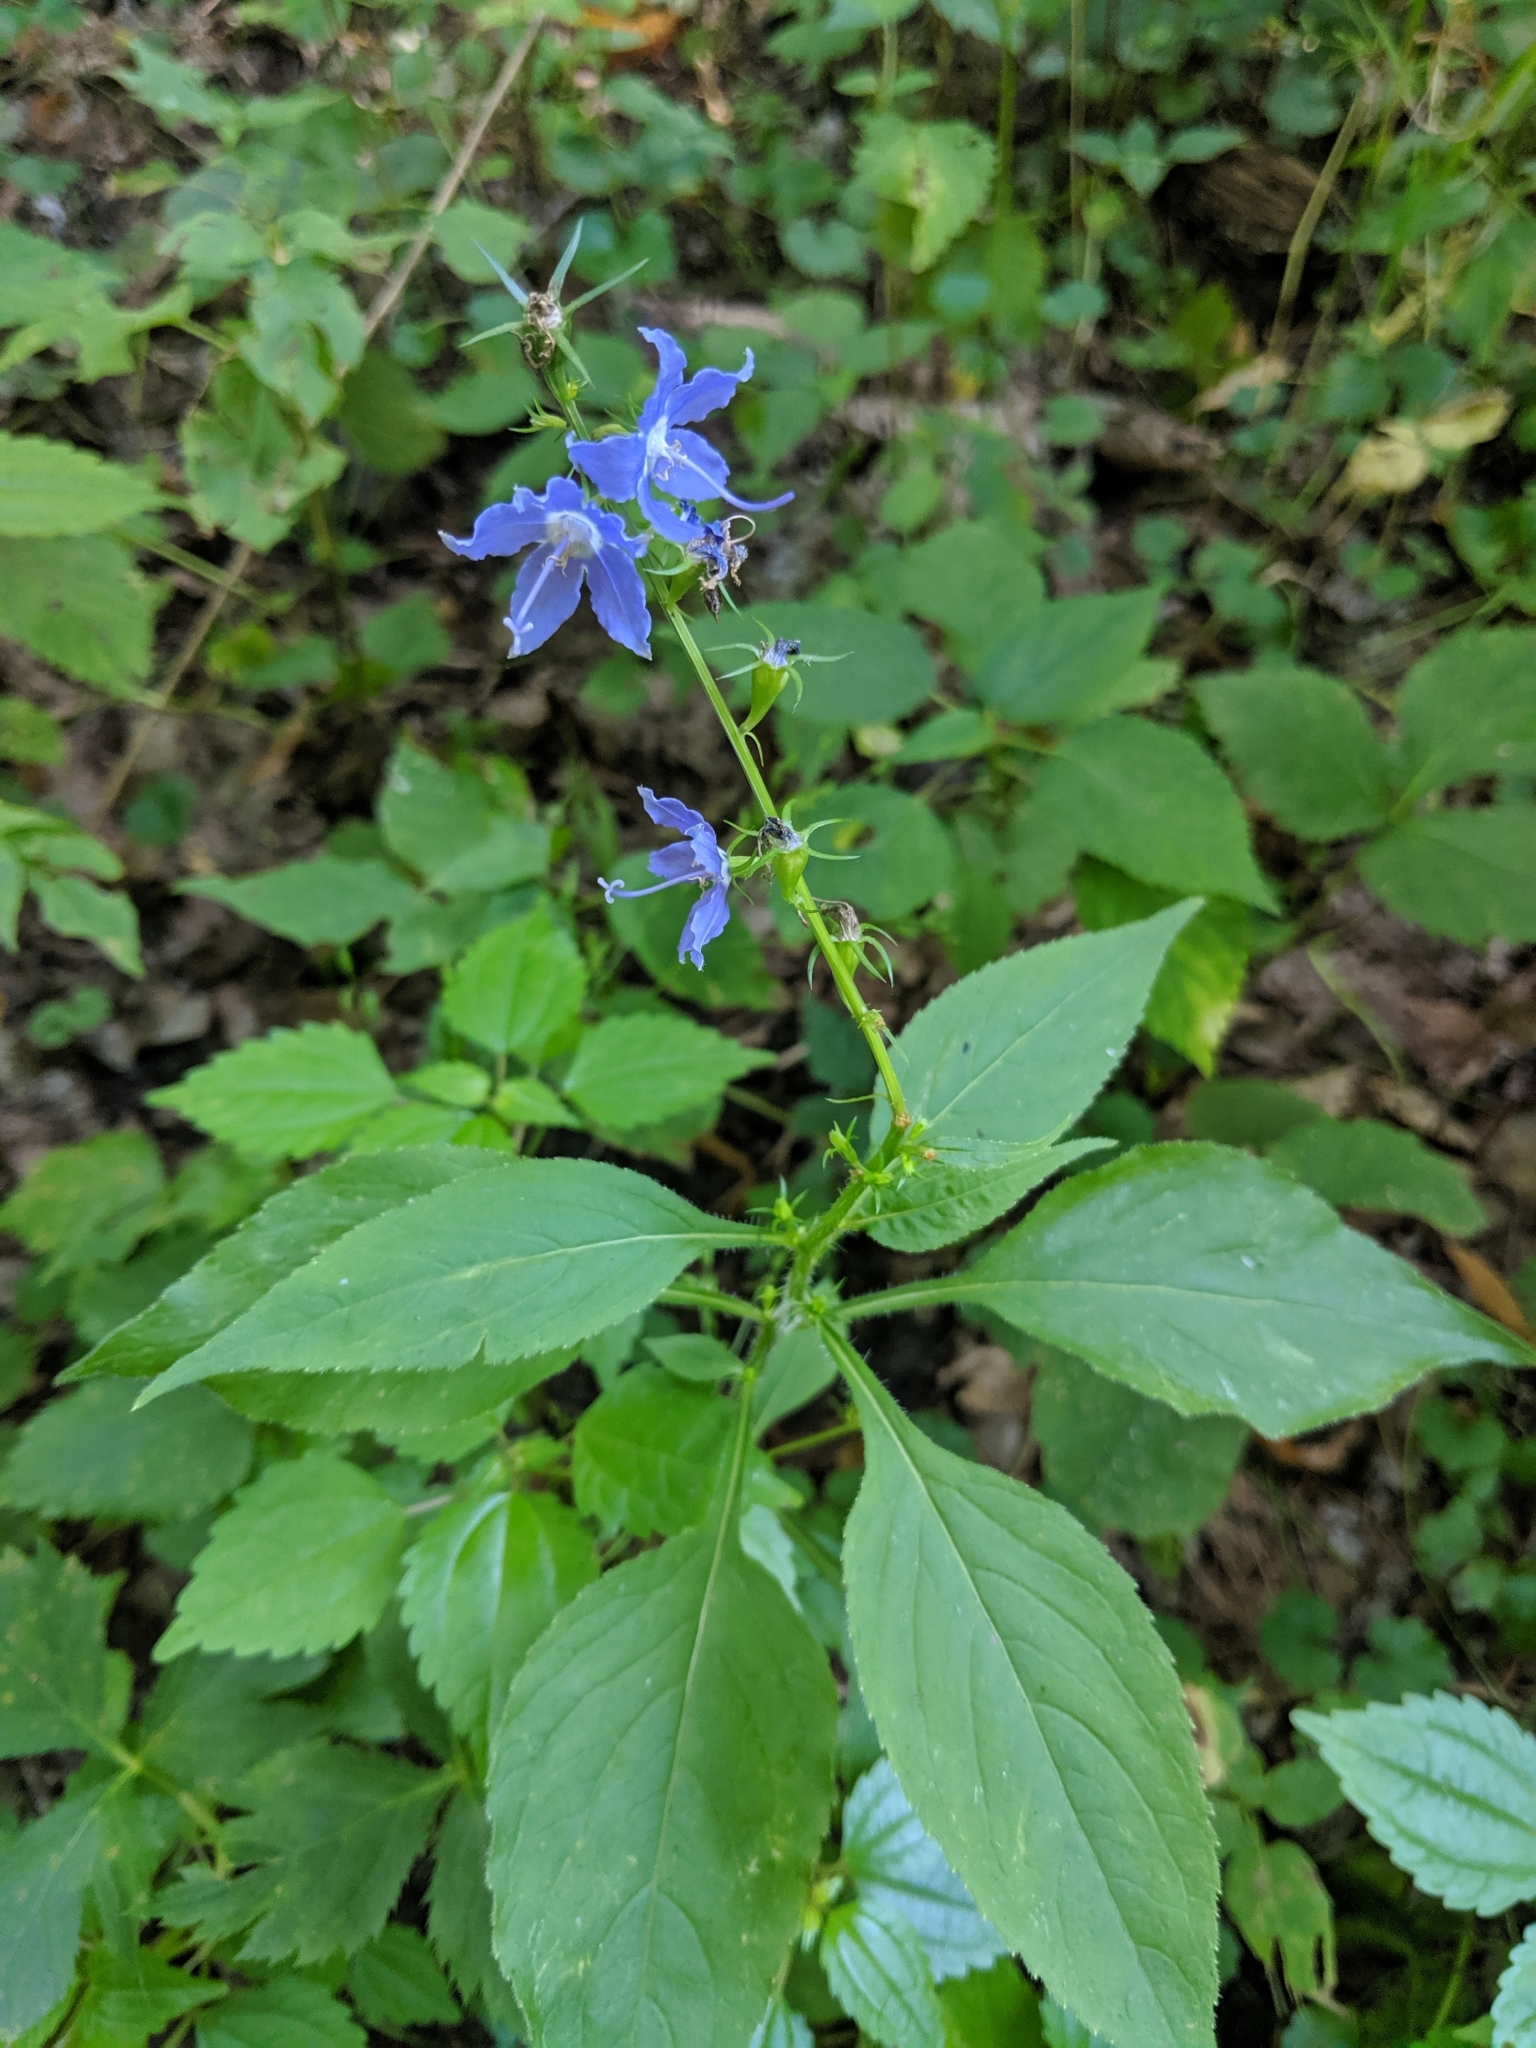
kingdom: Plantae
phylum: Tracheophyta
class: Magnoliopsida
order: Asterales
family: Campanulaceae
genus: Campanulastrum
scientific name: Campanulastrum americanum
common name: American bellflower
